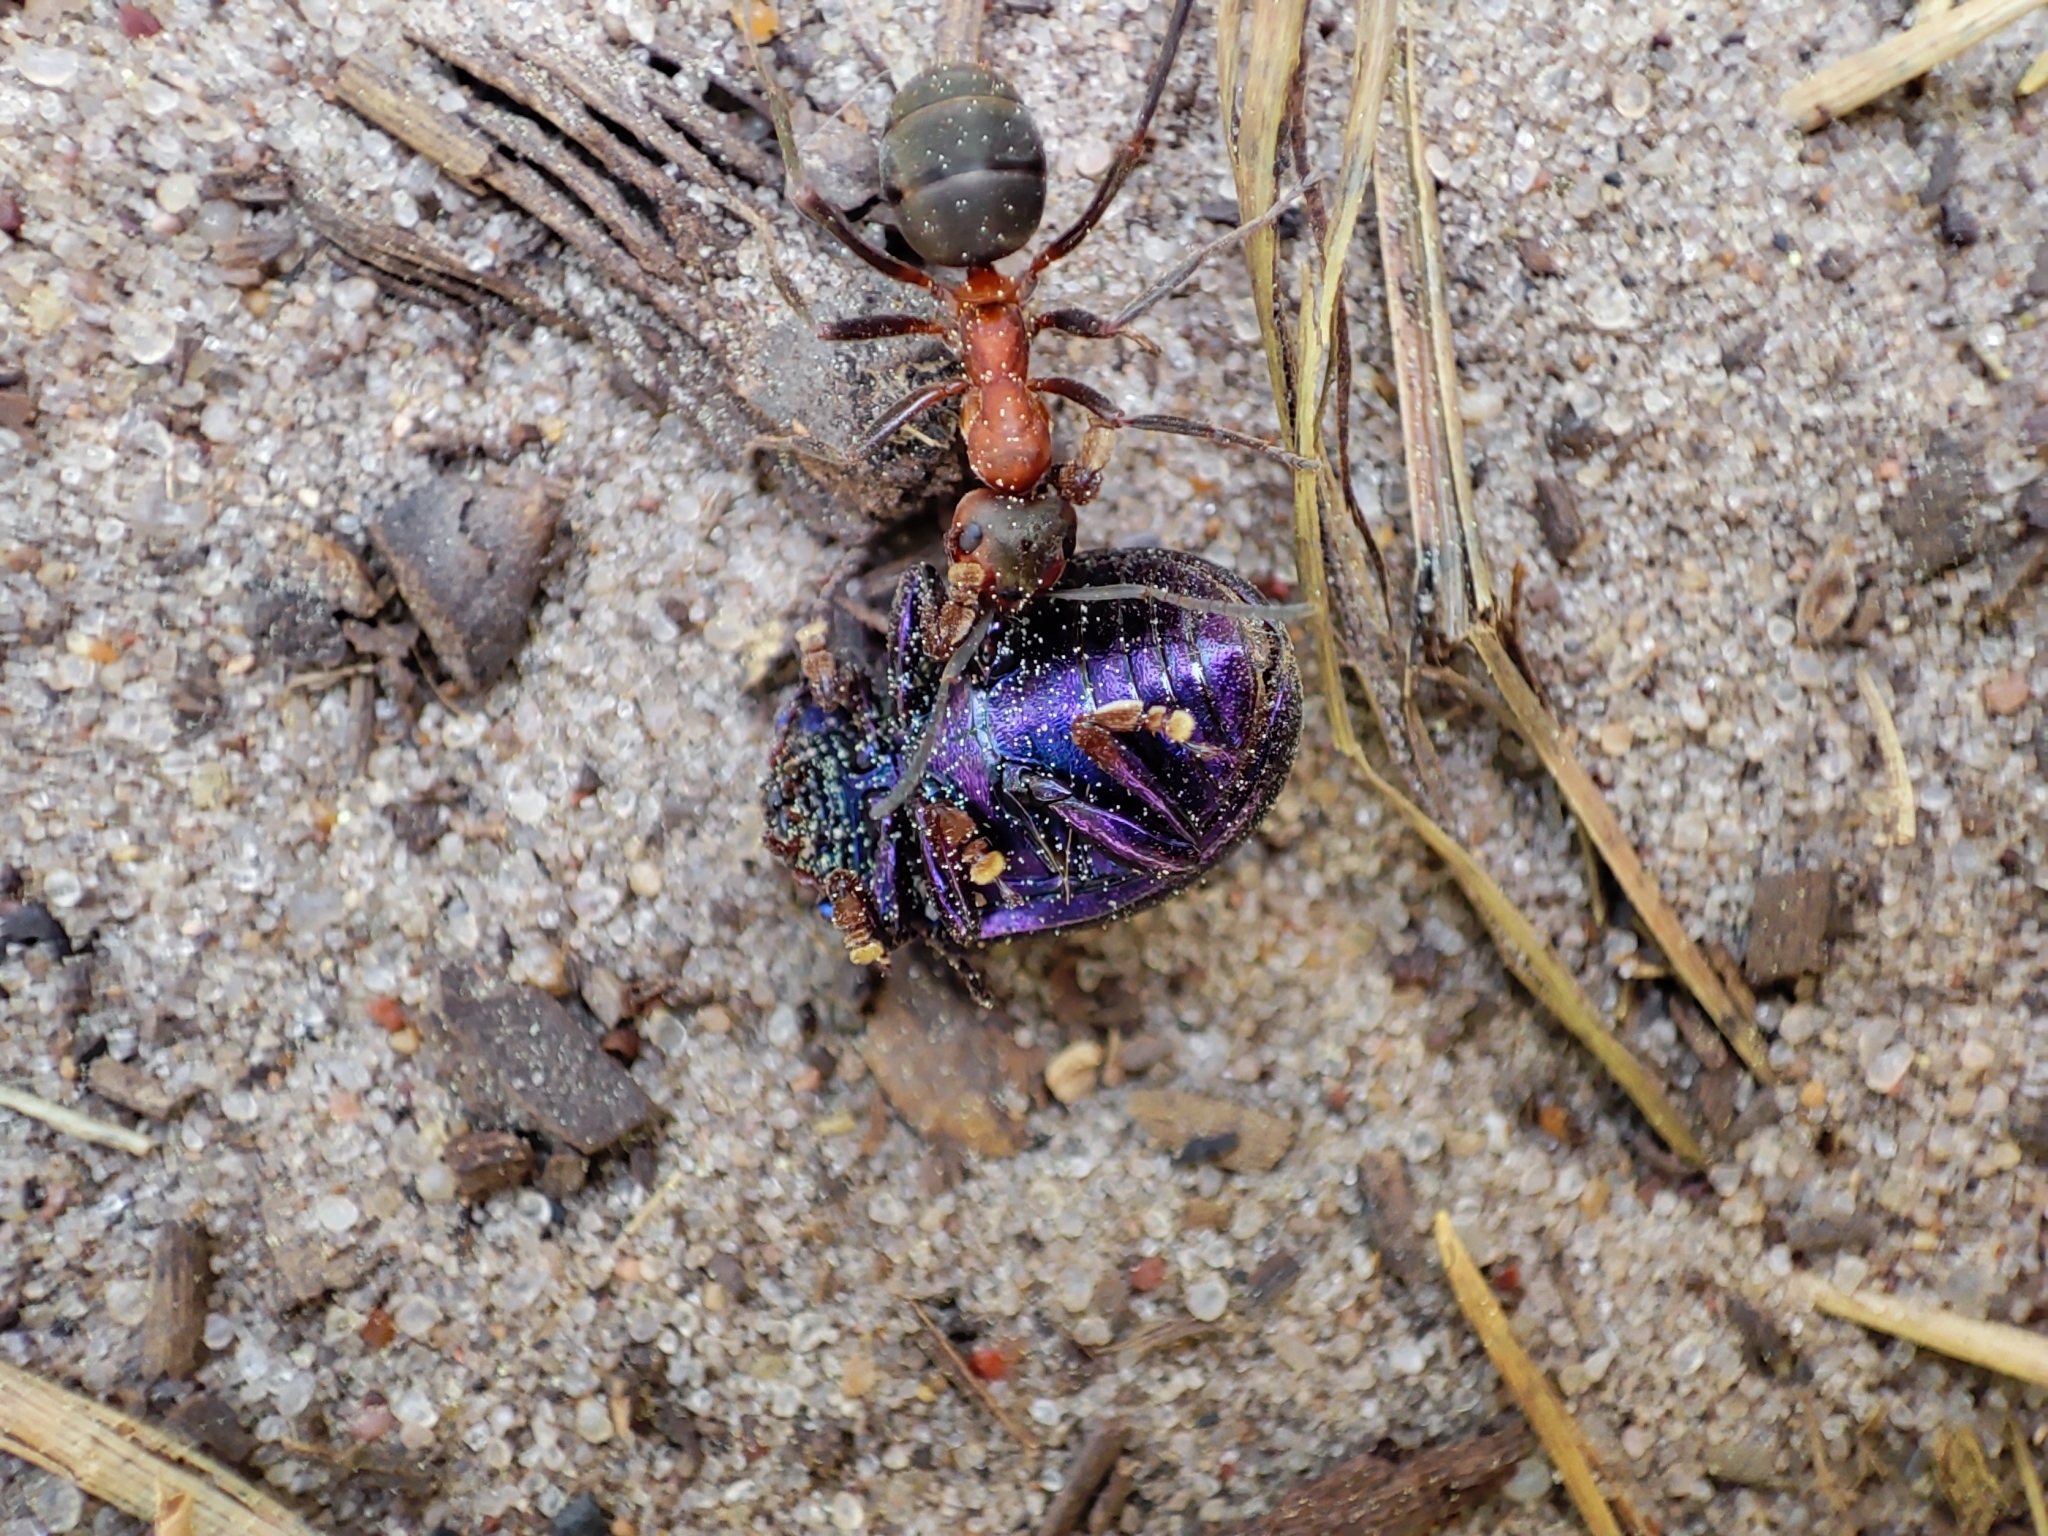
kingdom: Animalia
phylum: Arthropoda
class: Insecta
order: Coleoptera
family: Chrysomelidae
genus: Chrysolina
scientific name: Chrysolina sturmi
